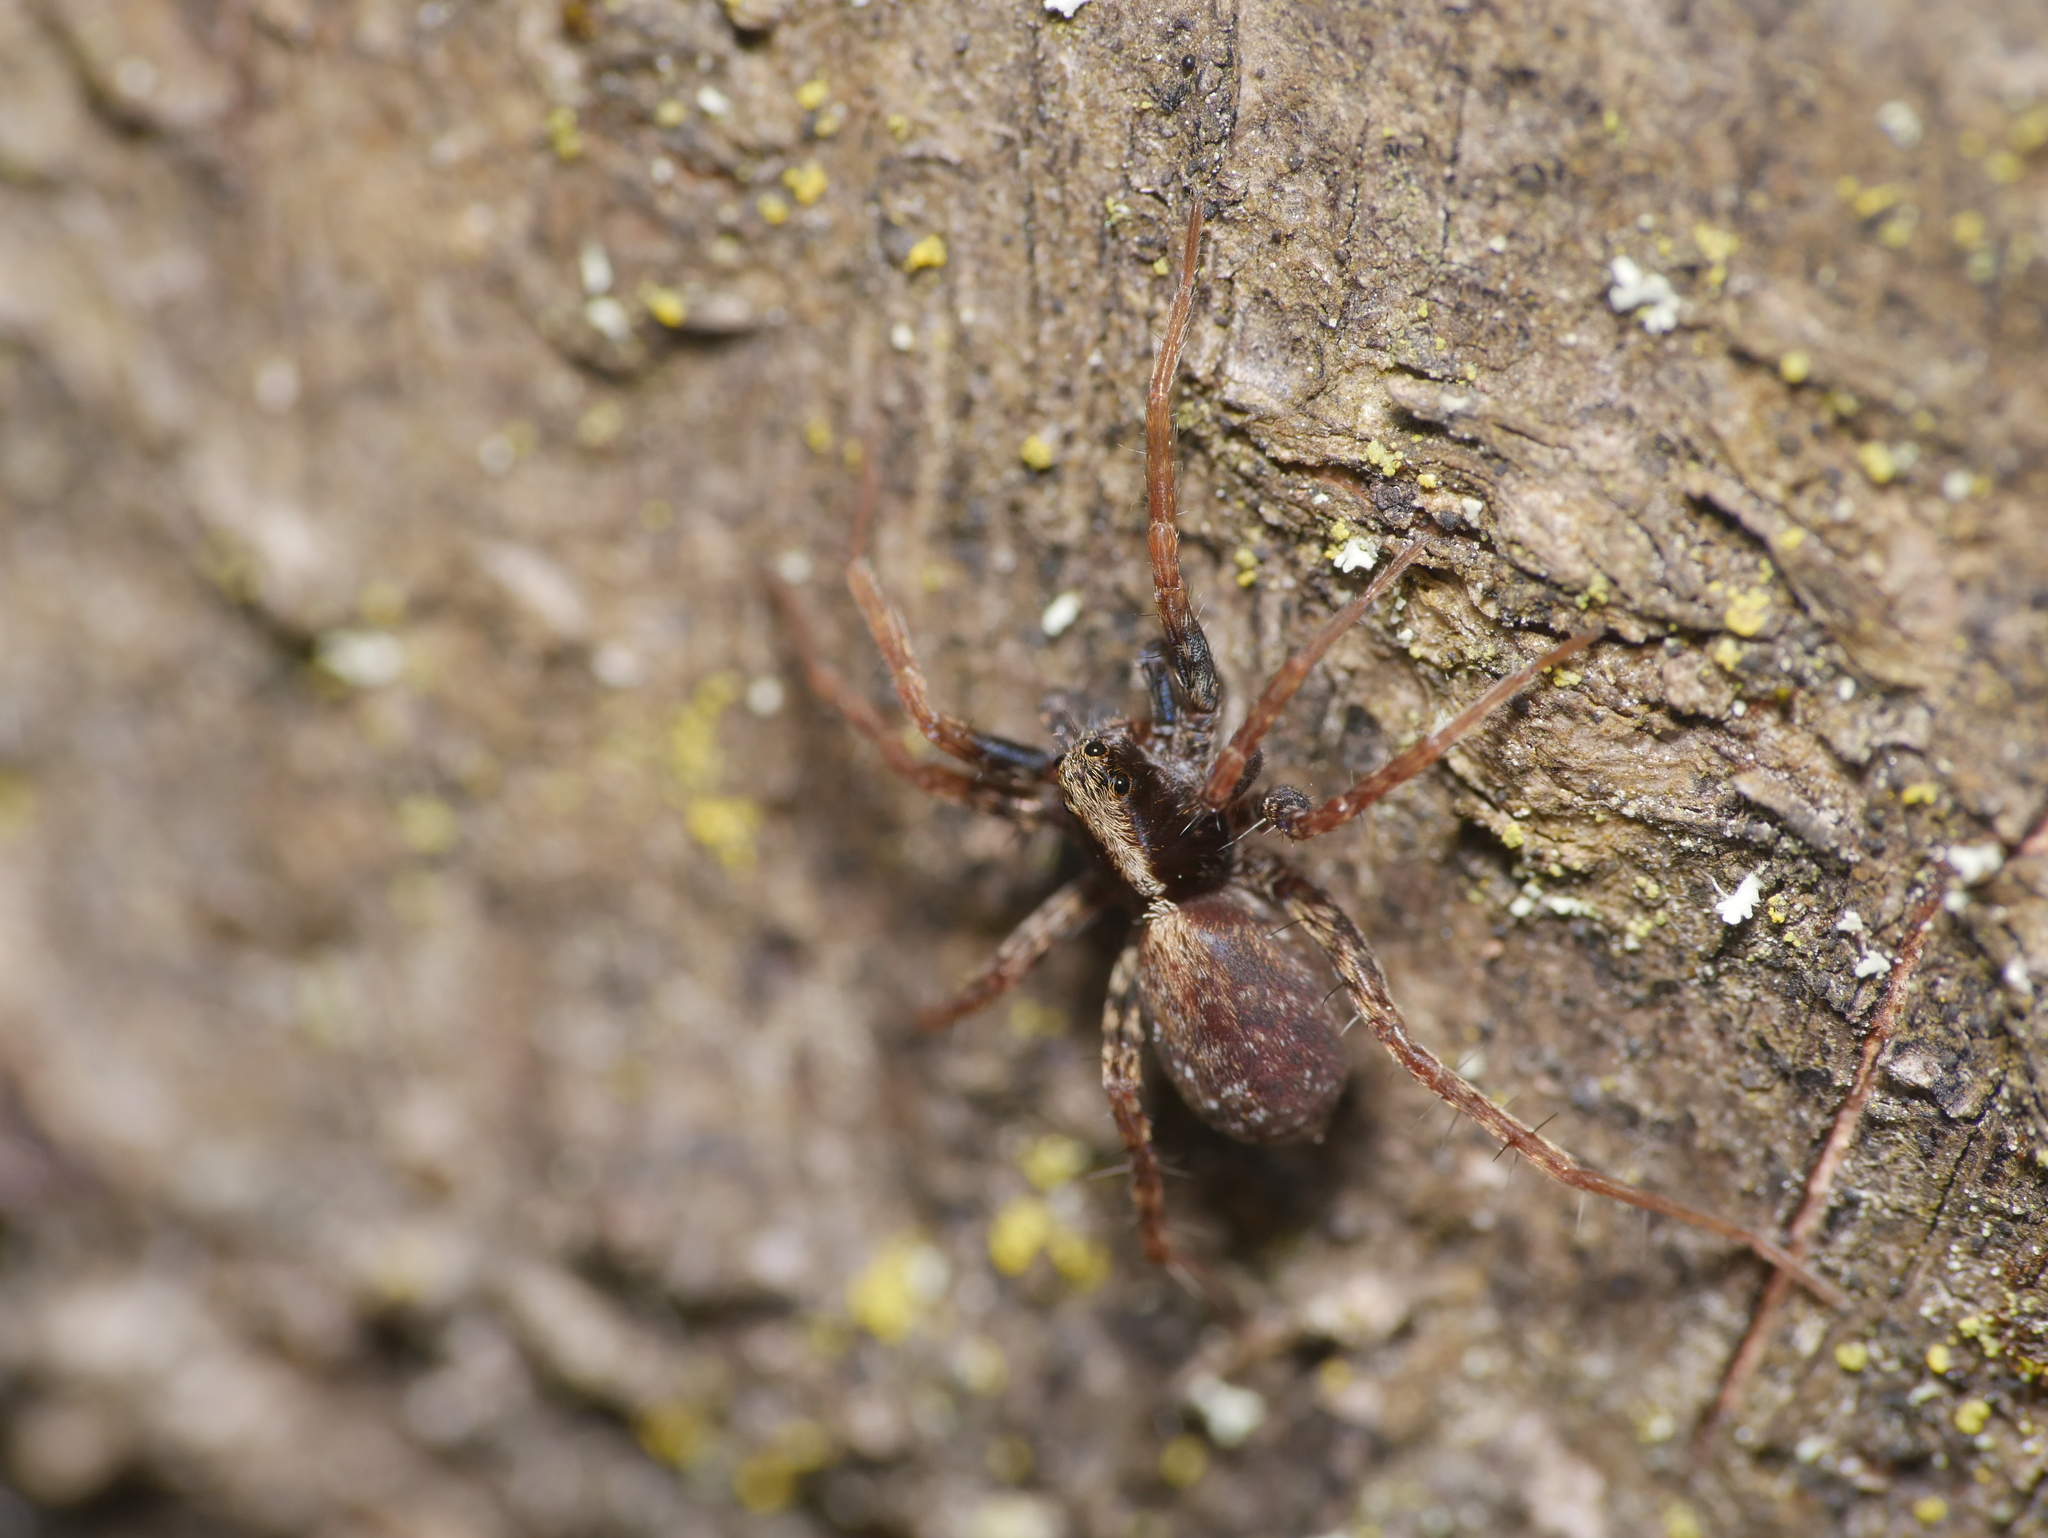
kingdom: Animalia
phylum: Arthropoda
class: Arachnida
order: Araneae
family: Lycosidae
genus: Pardosa
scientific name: Pardosa
